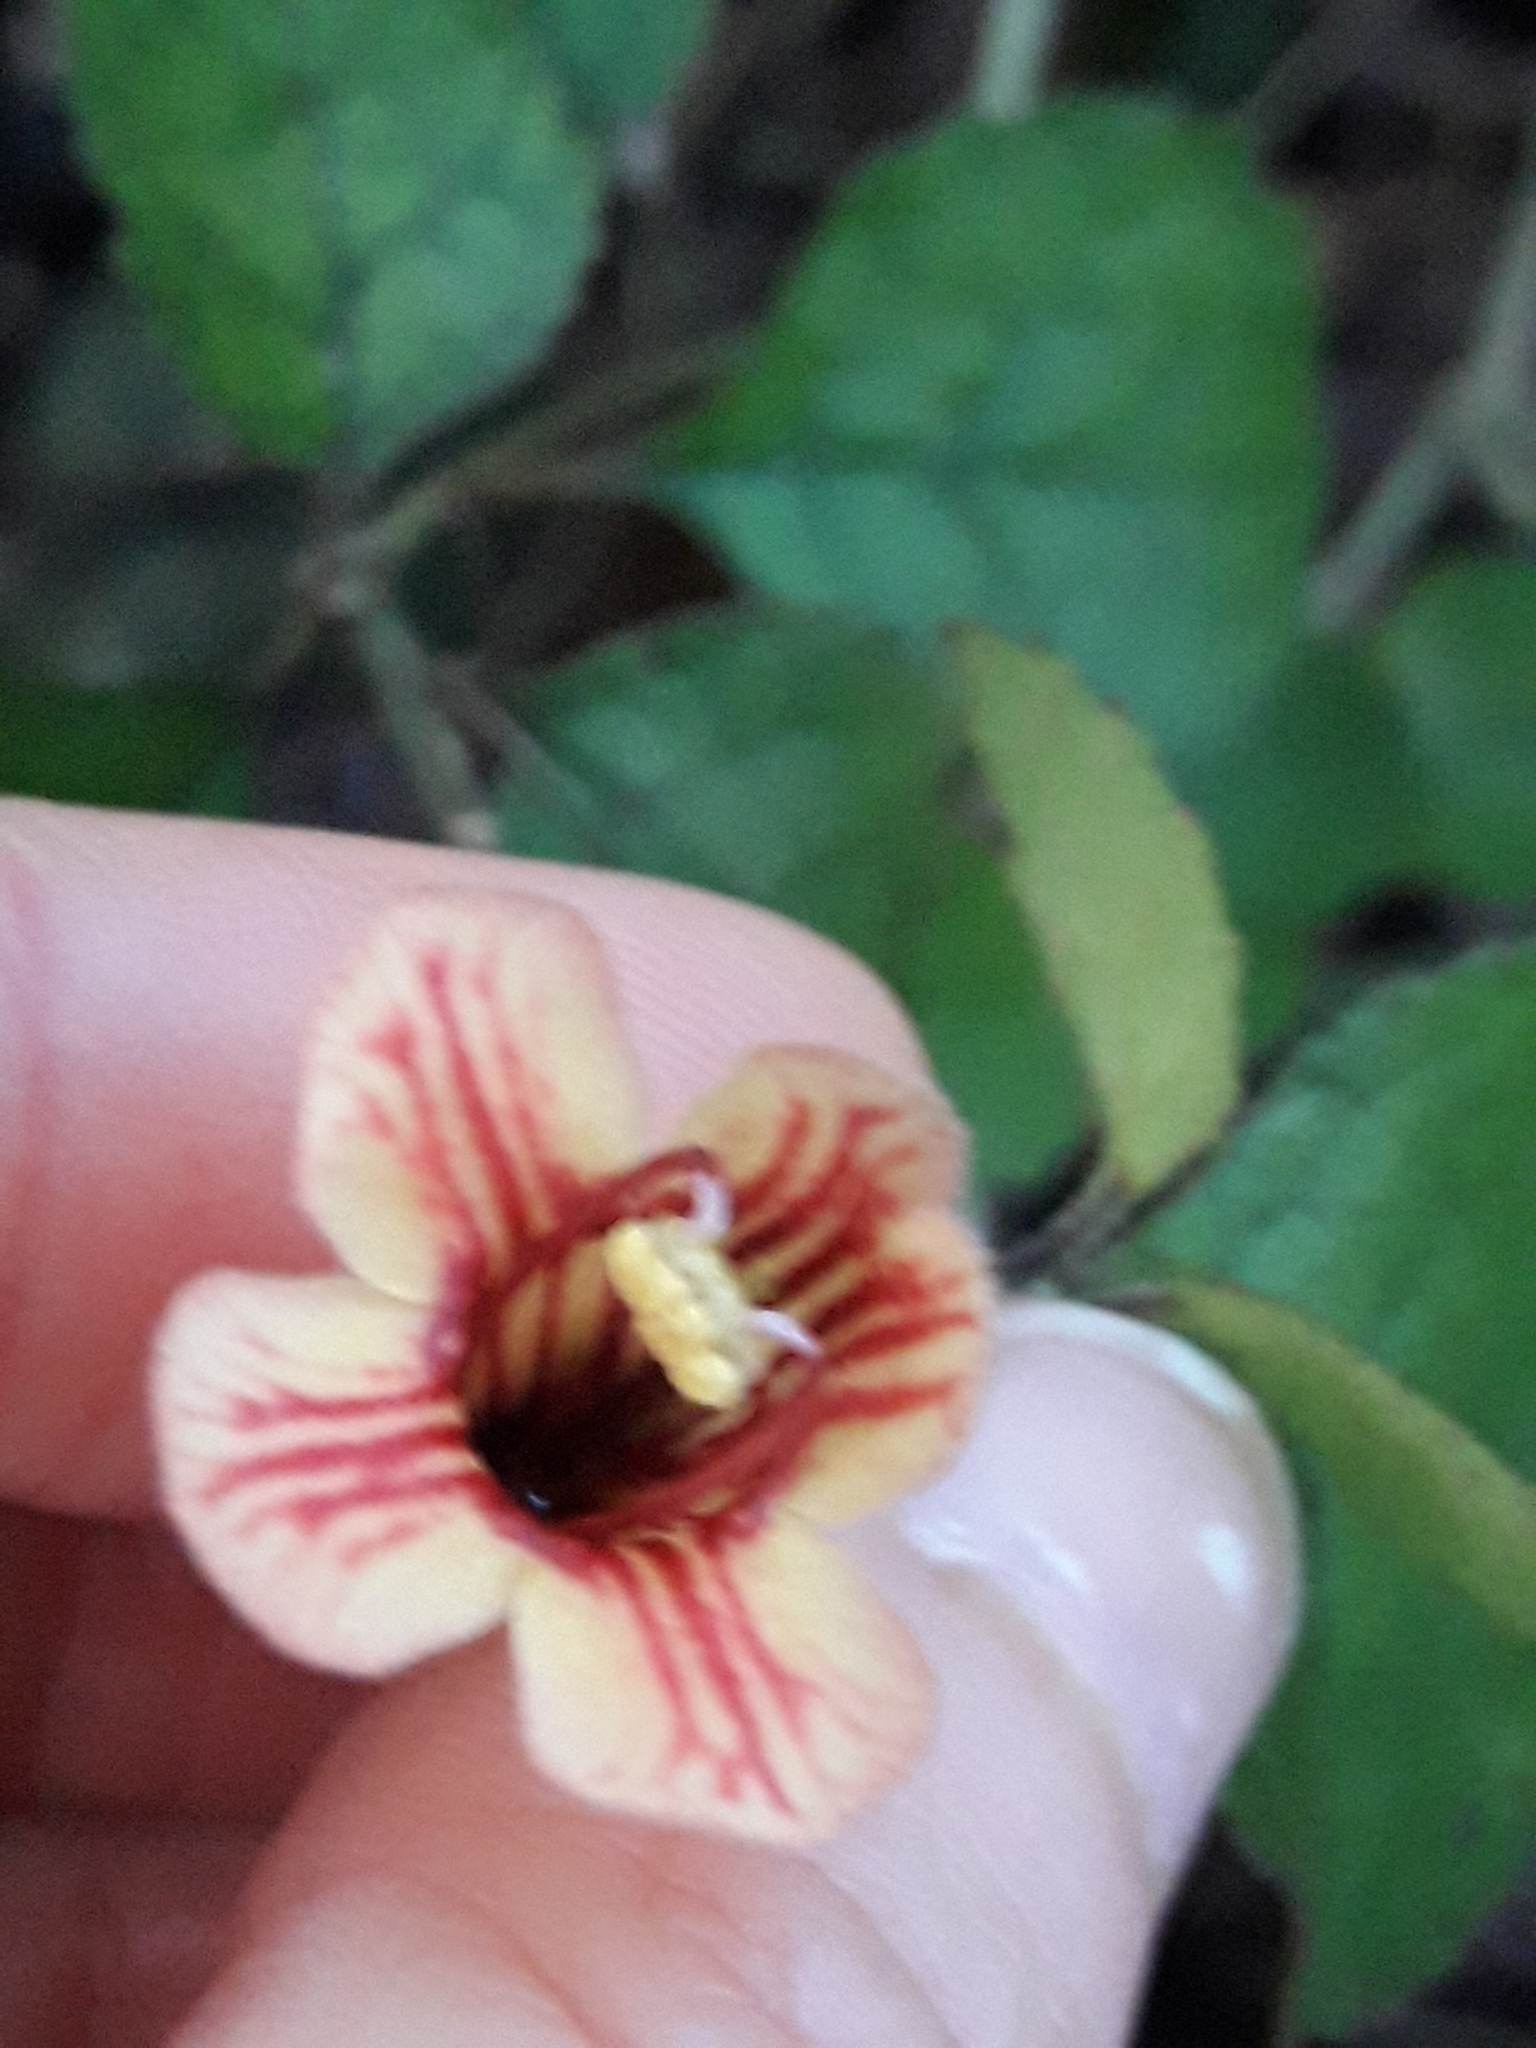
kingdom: Plantae
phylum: Tracheophyta
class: Magnoliopsida
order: Lamiales
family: Gesneriaceae
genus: Rhabdothamnus
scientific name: Rhabdothamnus solandri
